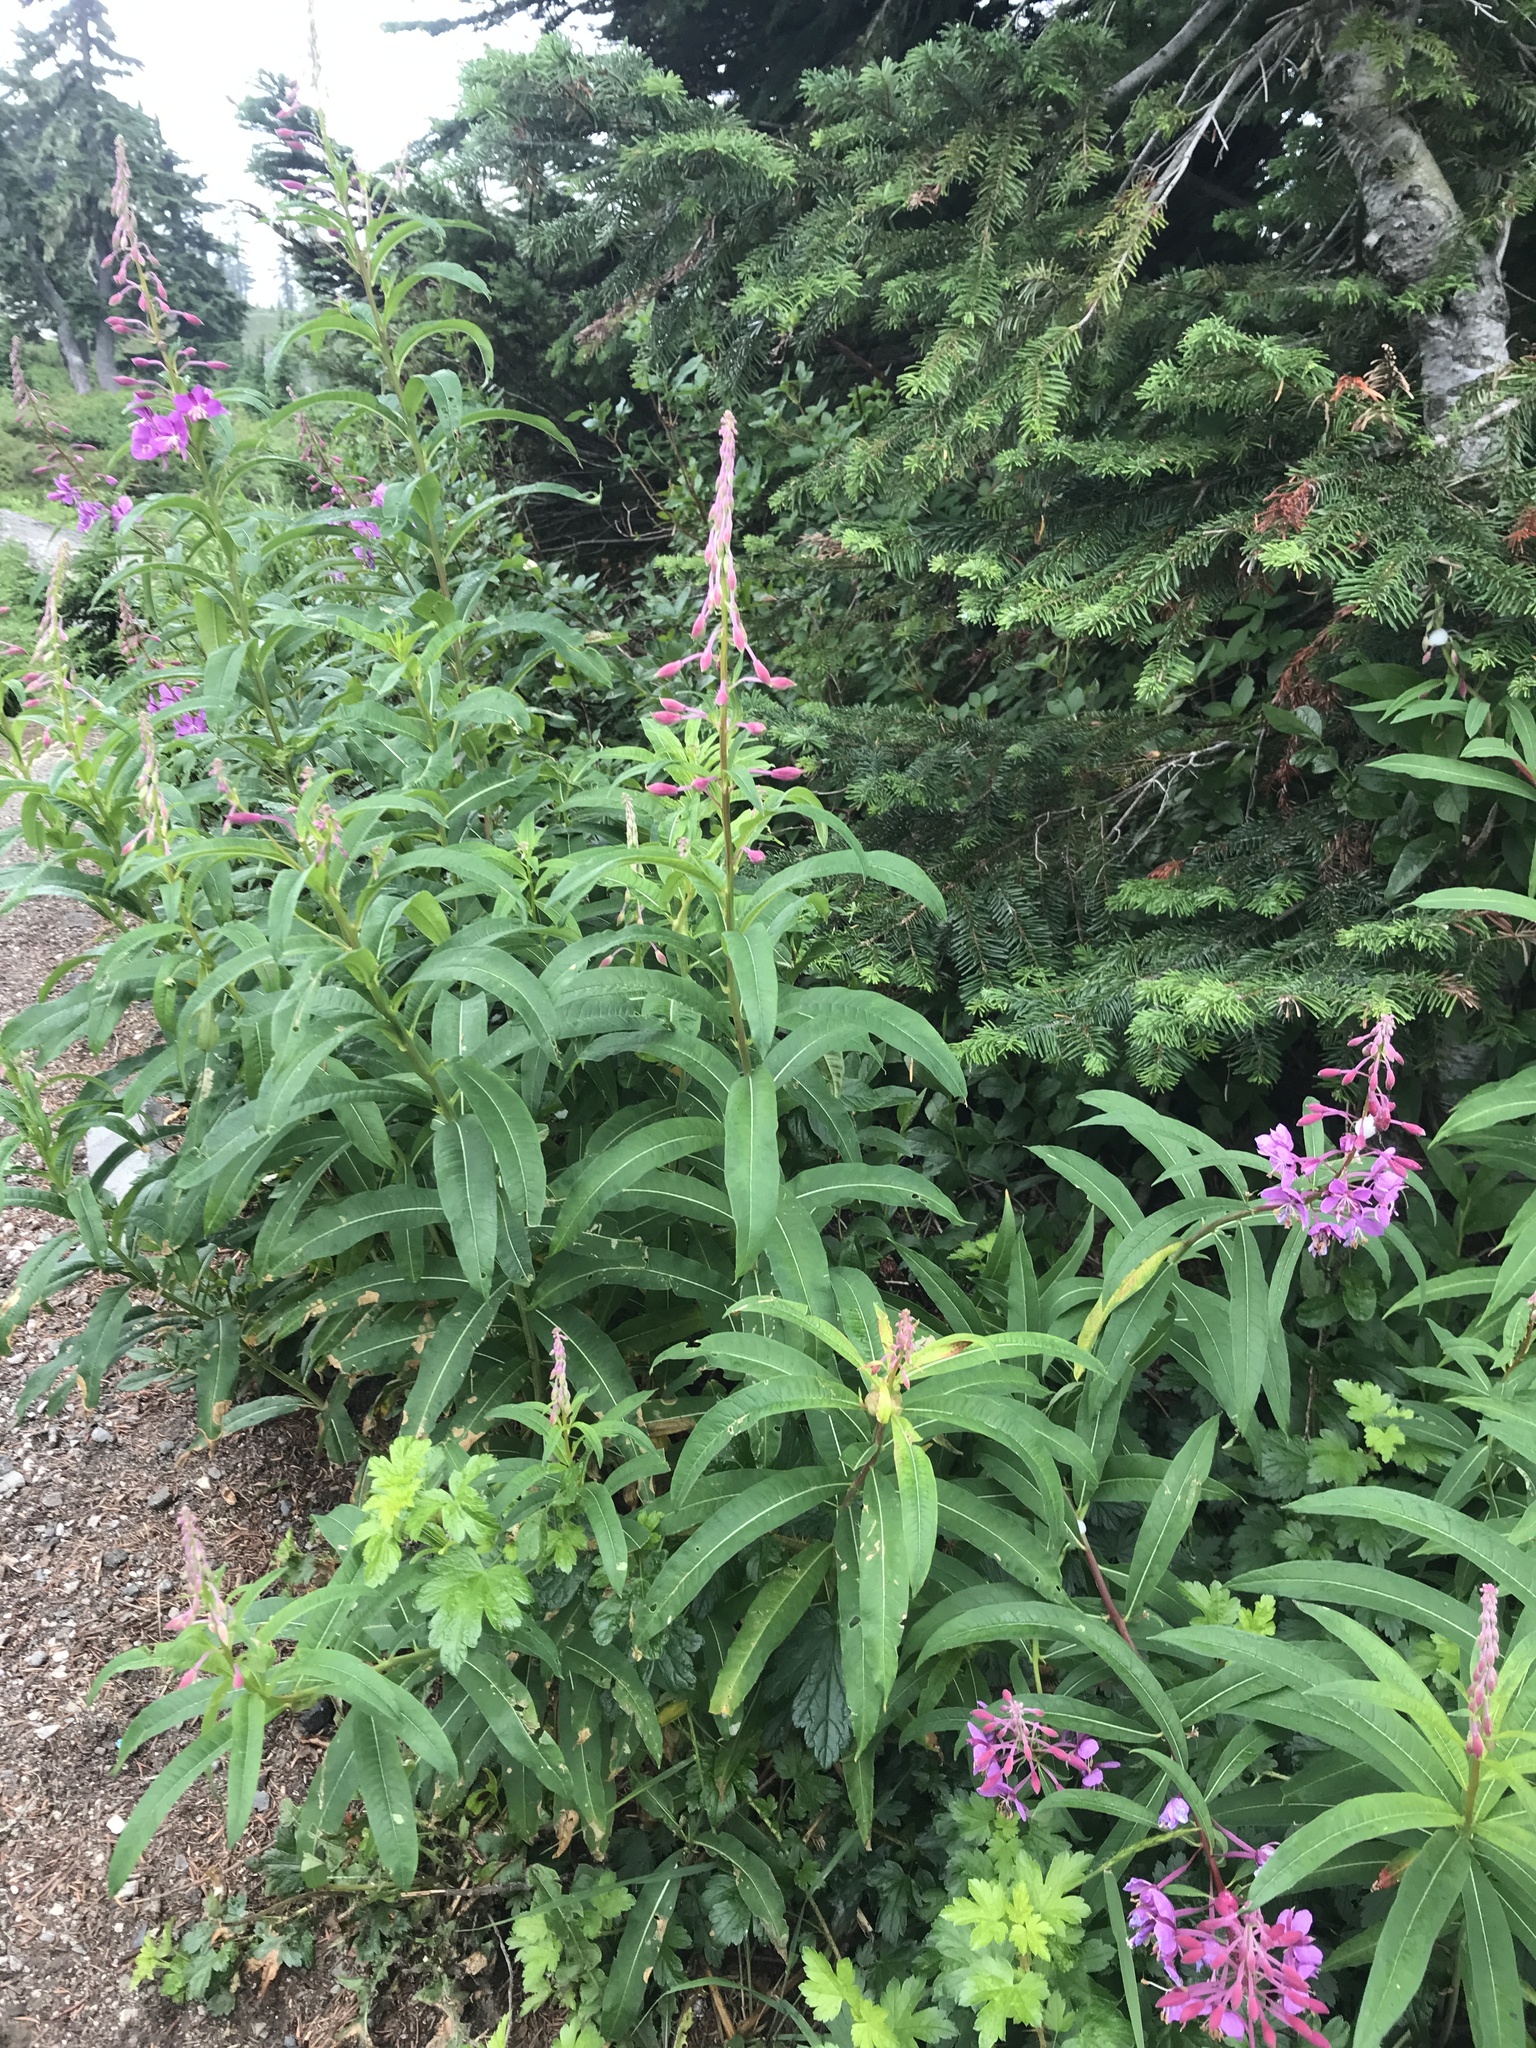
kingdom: Plantae
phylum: Tracheophyta
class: Magnoliopsida
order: Myrtales
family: Onagraceae
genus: Chamaenerion
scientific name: Chamaenerion angustifolium
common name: Fireweed
